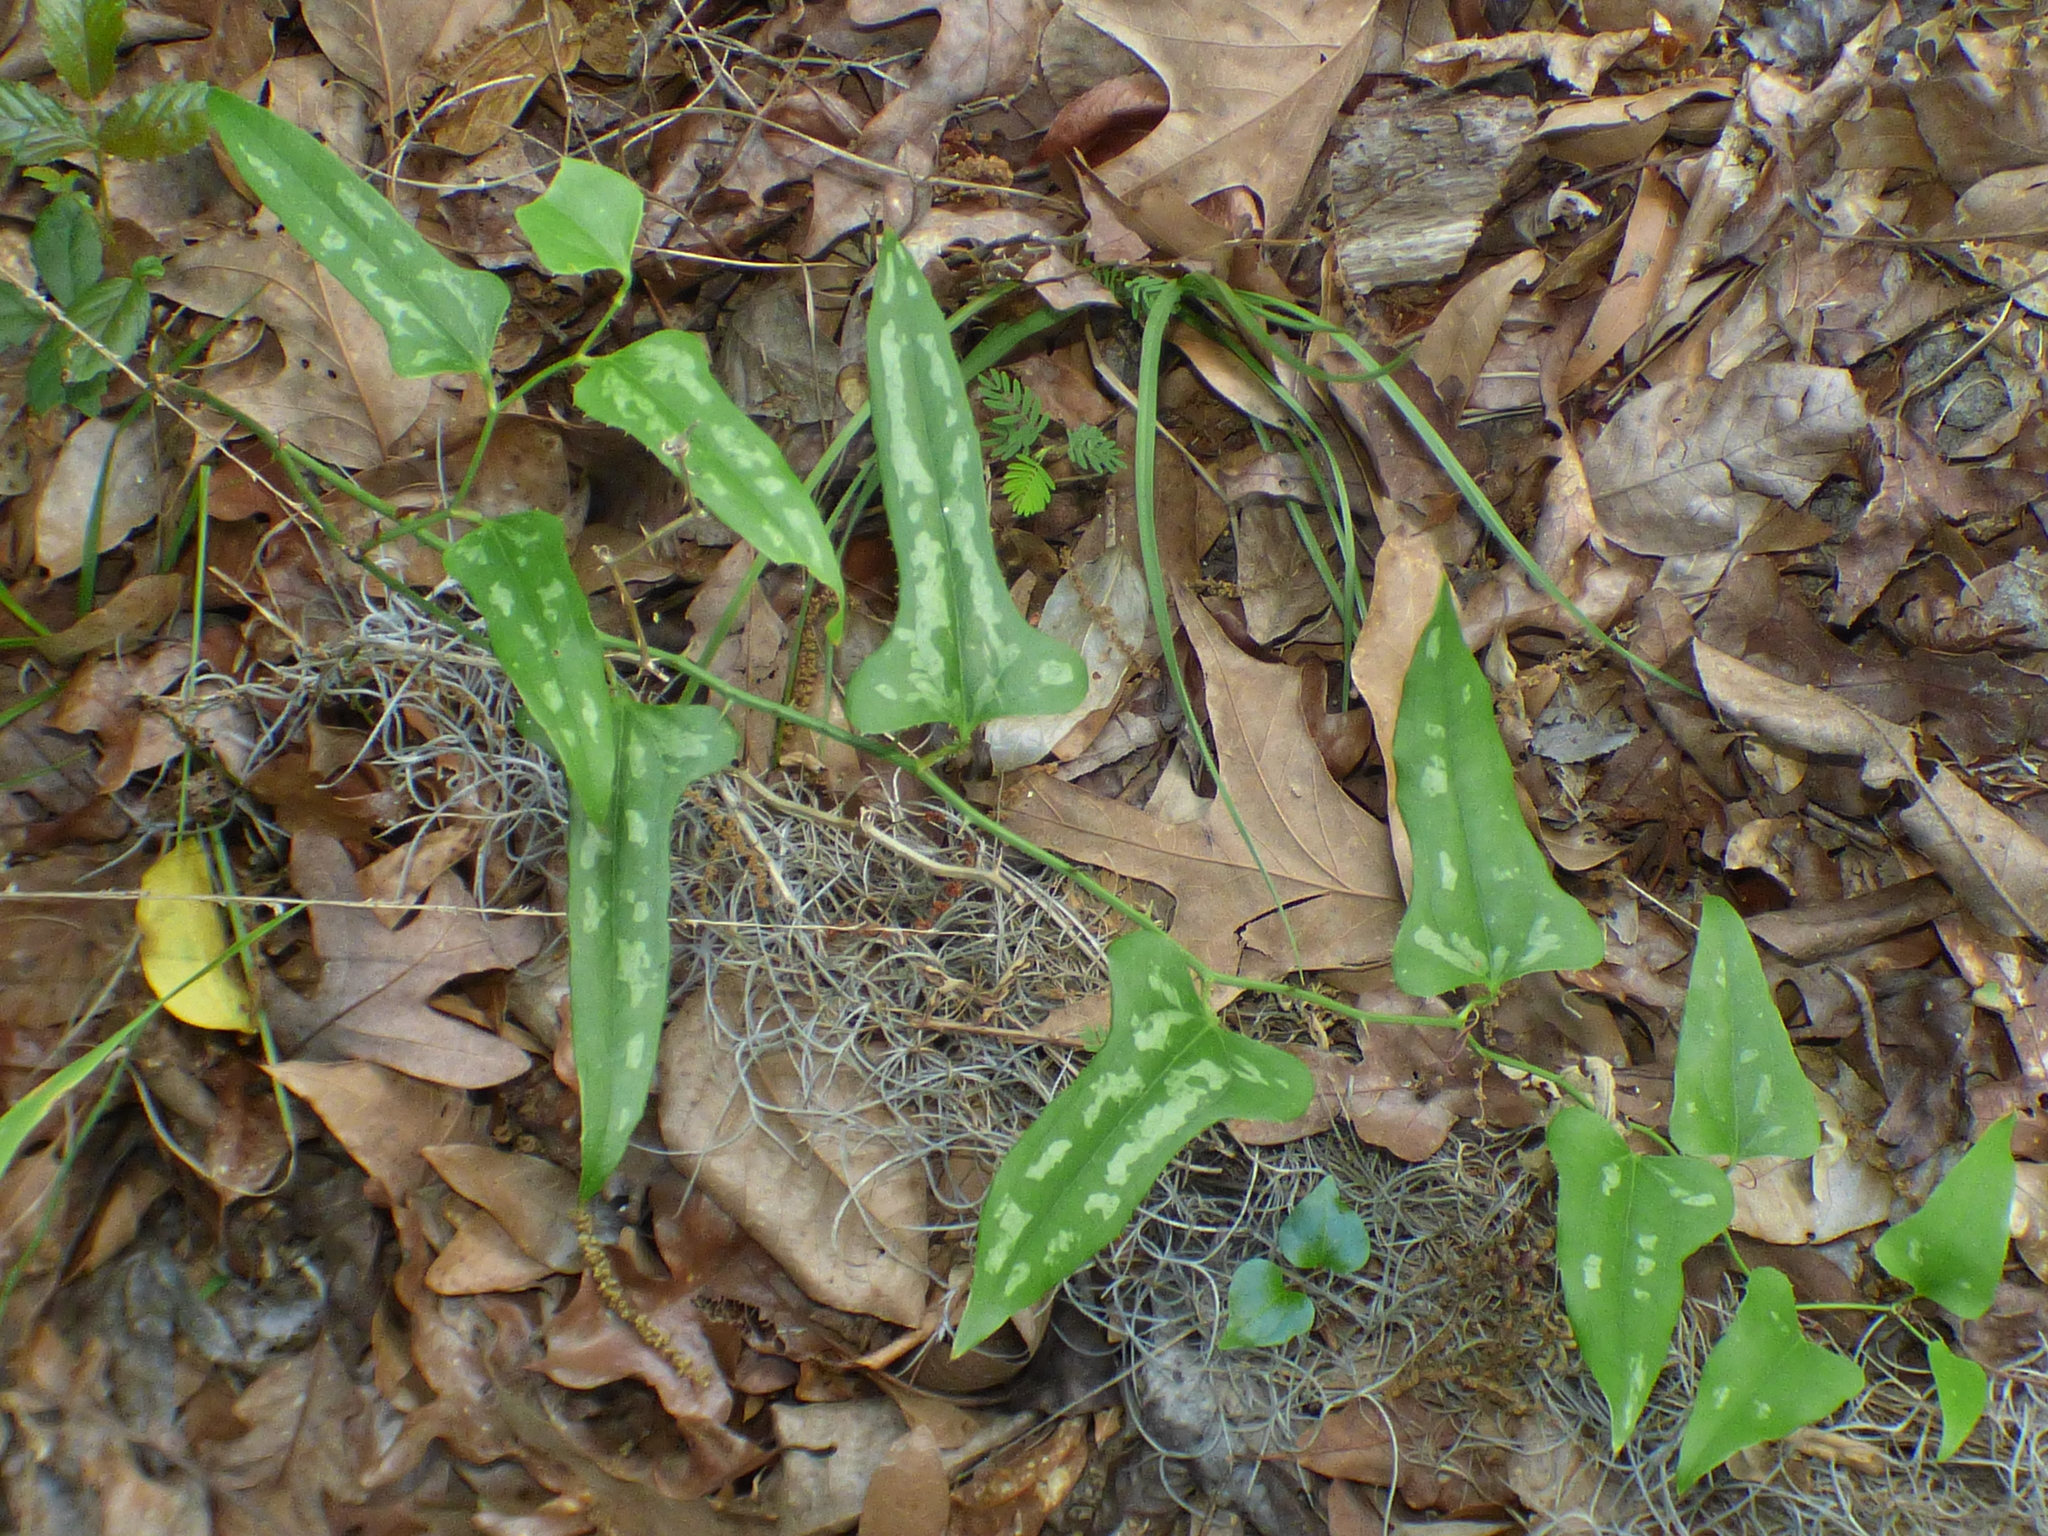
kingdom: Plantae
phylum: Tracheophyta
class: Liliopsida
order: Liliales
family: Smilacaceae
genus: Smilax
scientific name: Smilax bona-nox
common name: Catbrier
